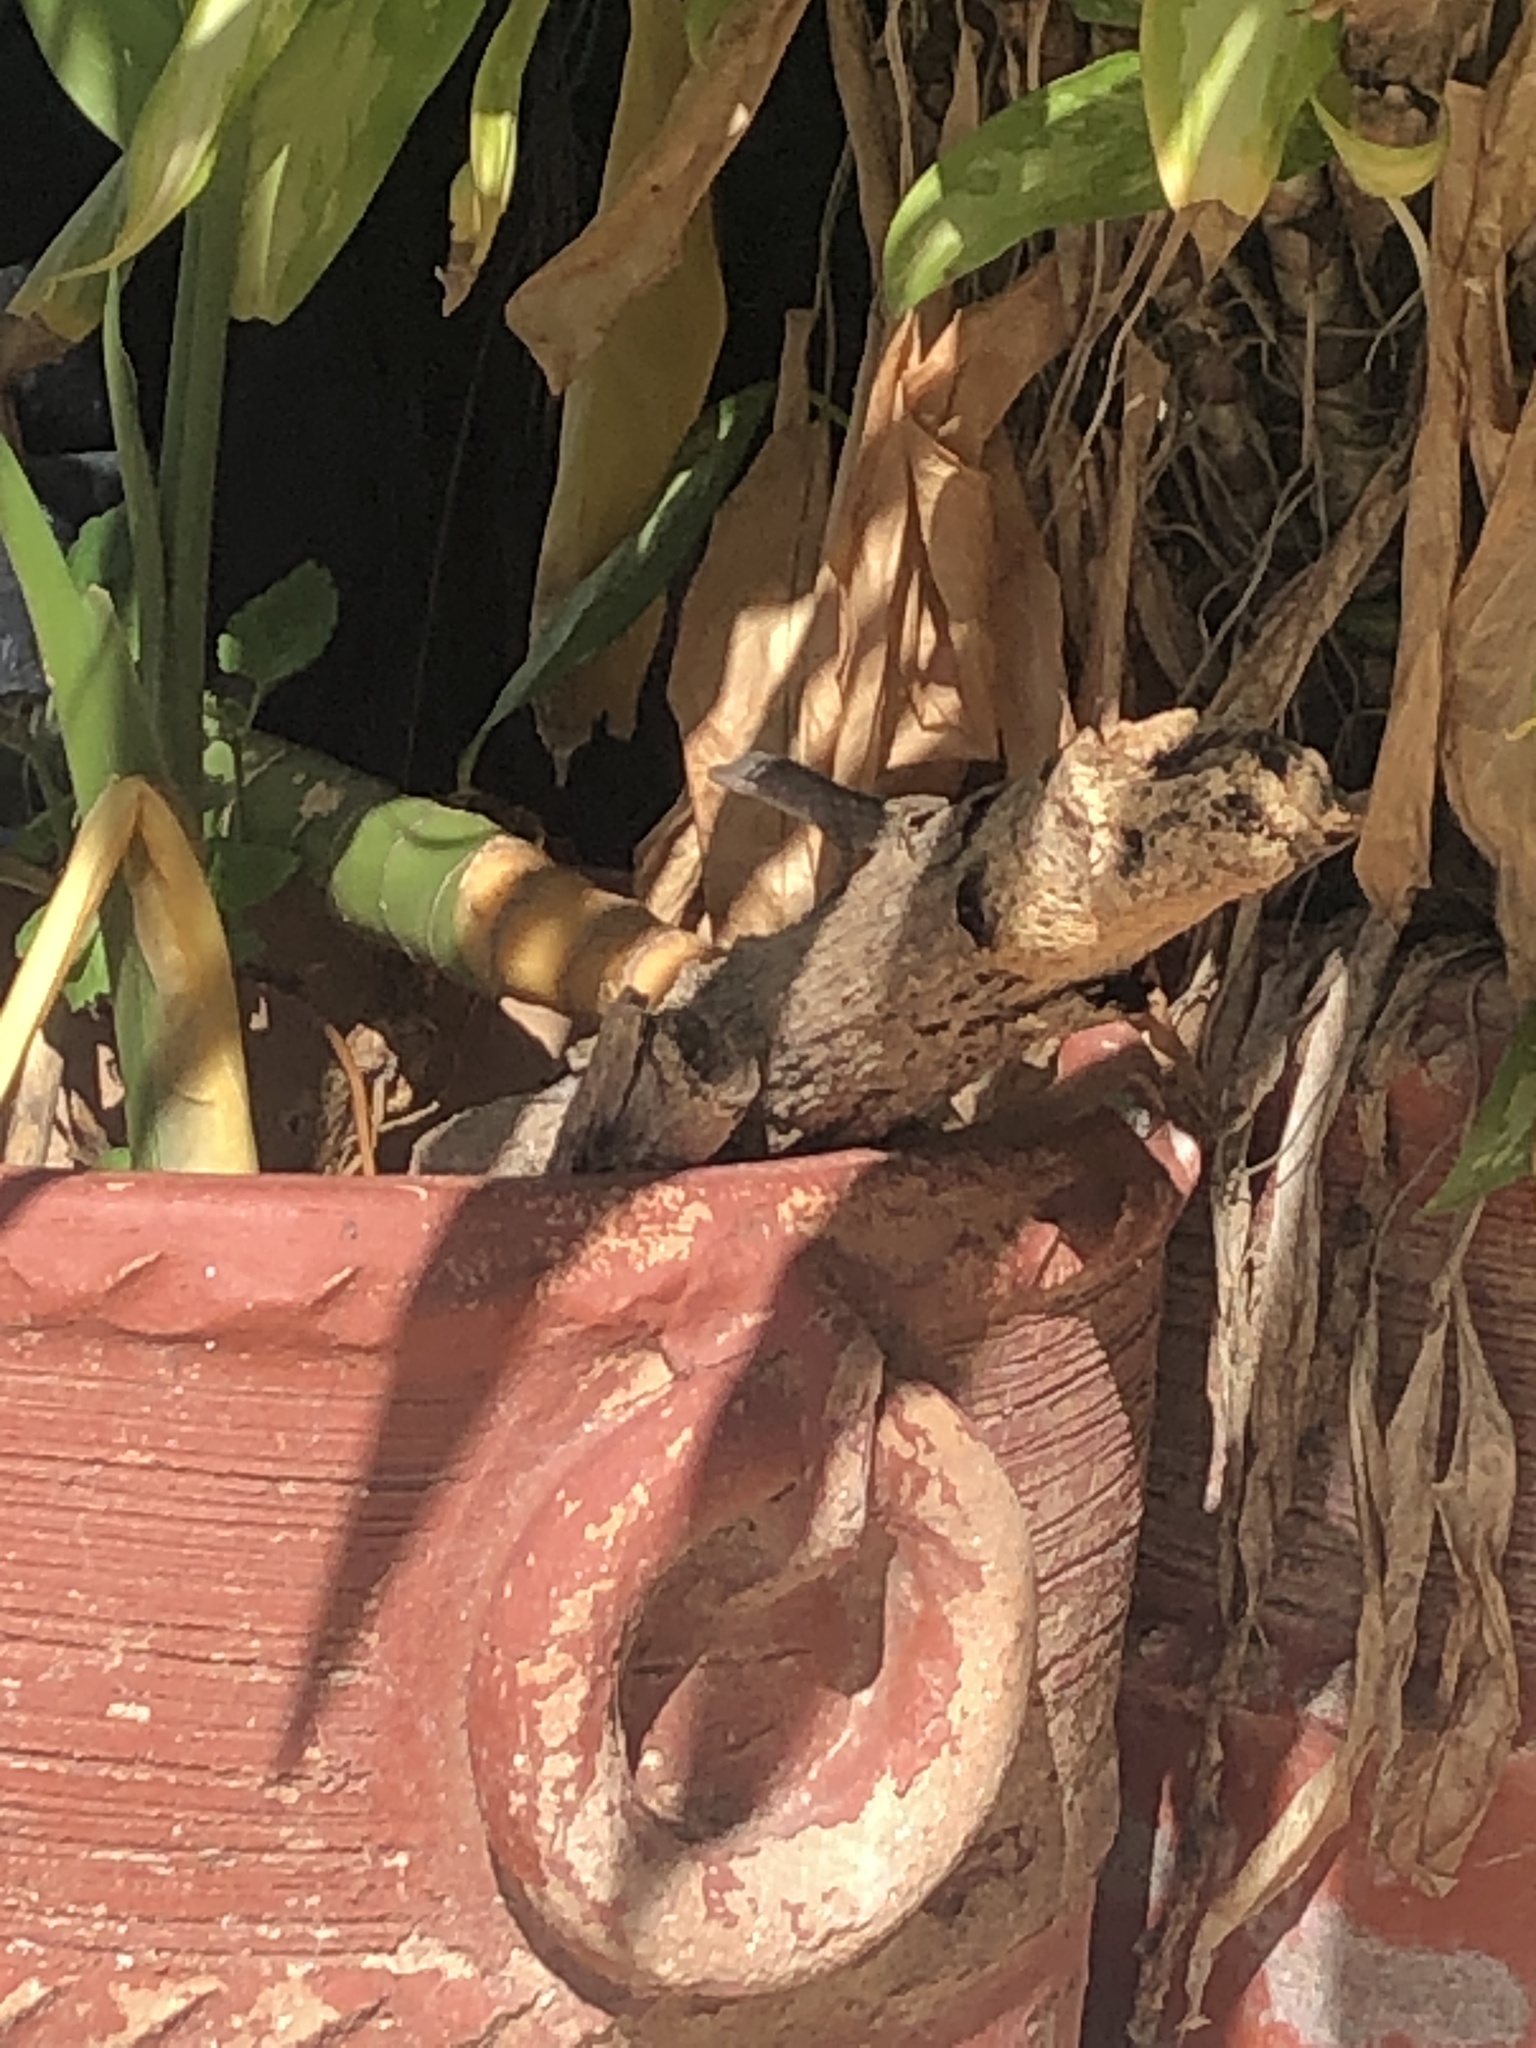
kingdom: Animalia
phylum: Chordata
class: Squamata
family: Dactyloidae
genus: Anolis
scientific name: Anolis sagrei
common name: Brown anole
